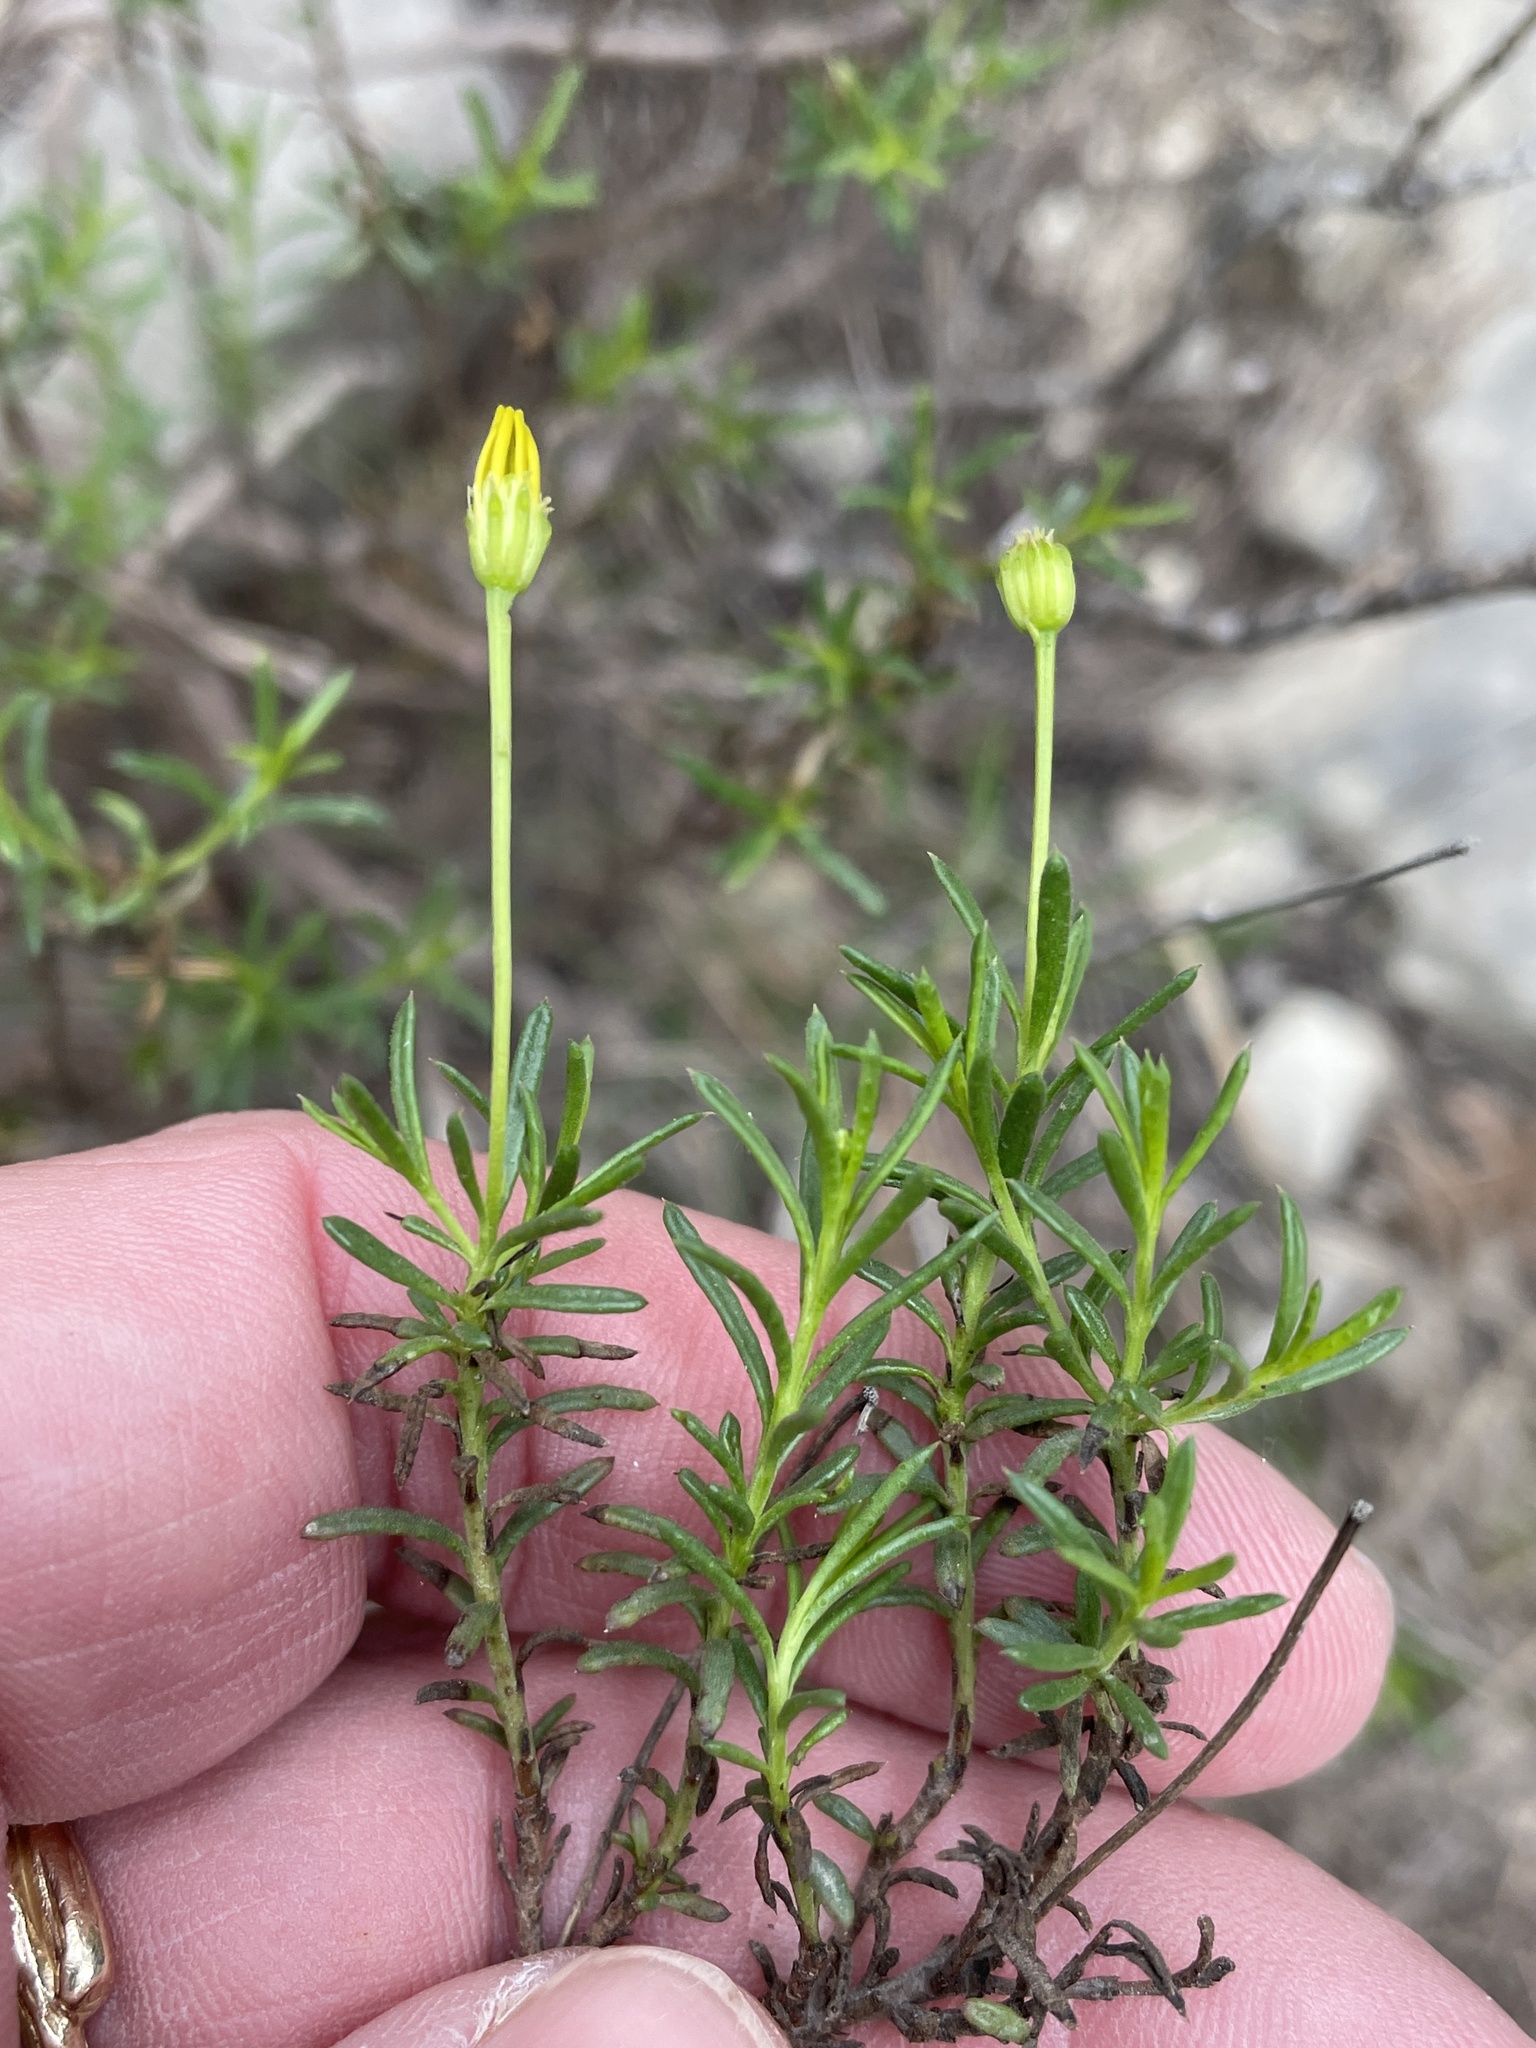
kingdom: Plantae
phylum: Tracheophyta
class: Magnoliopsida
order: Asterales
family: Asteraceae
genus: Chrysactinia
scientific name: Chrysactinia mexicana
